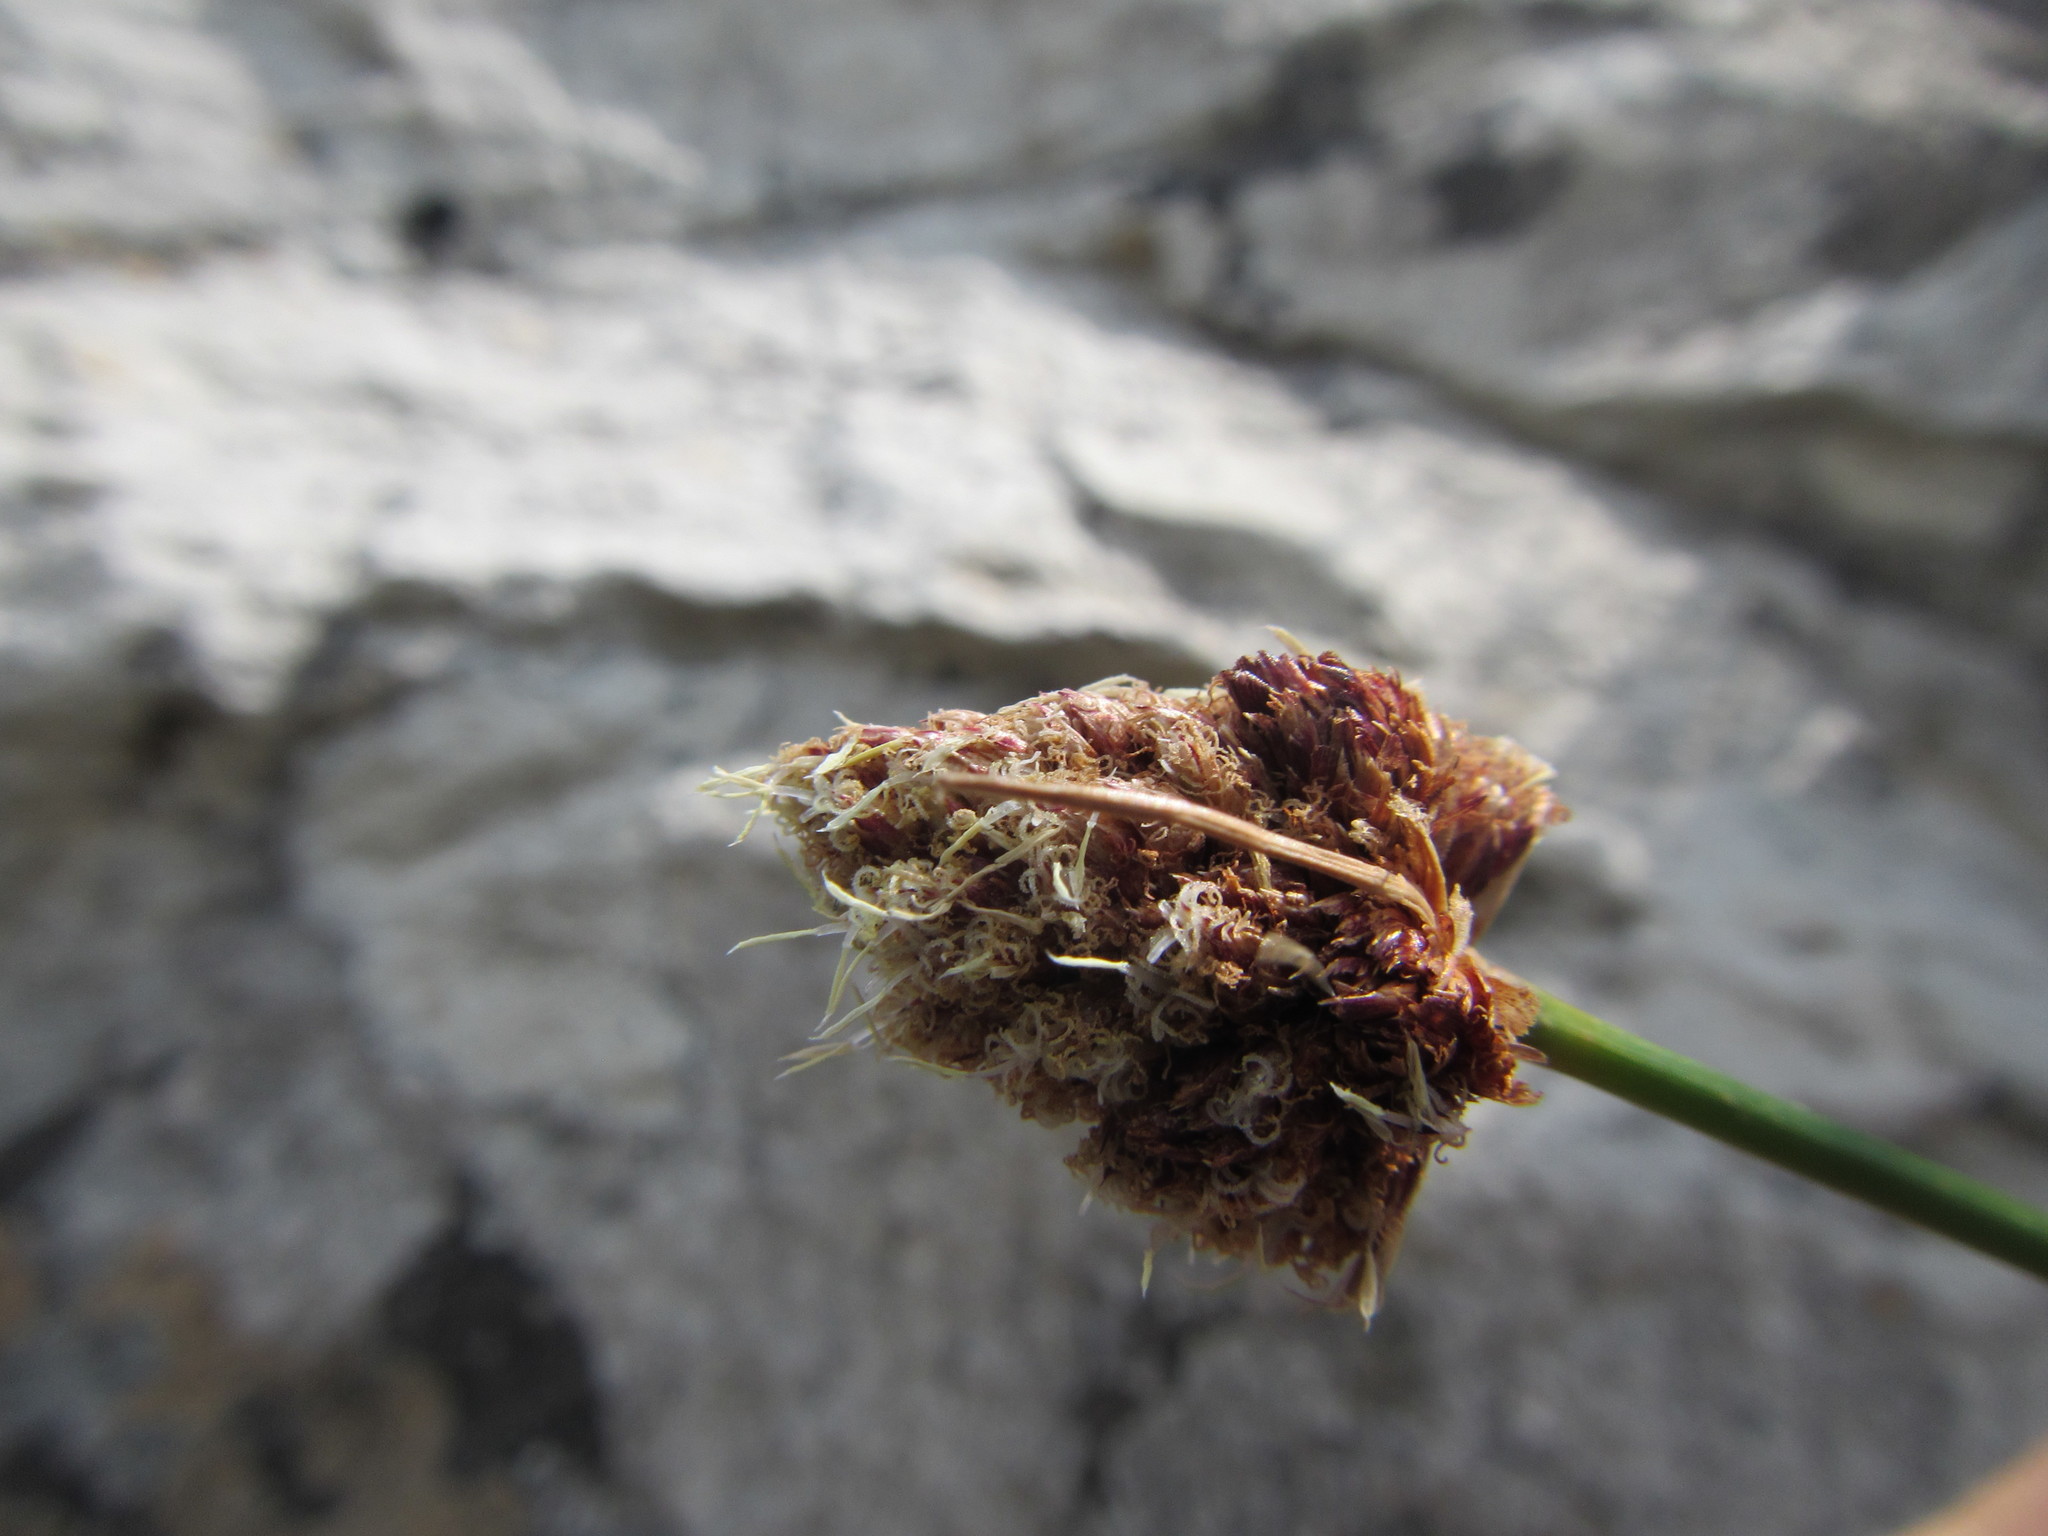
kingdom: Plantae
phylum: Tracheophyta
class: Liliopsida
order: Poales
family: Cyperaceae
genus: Ficinia
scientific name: Ficinia brevifolia
